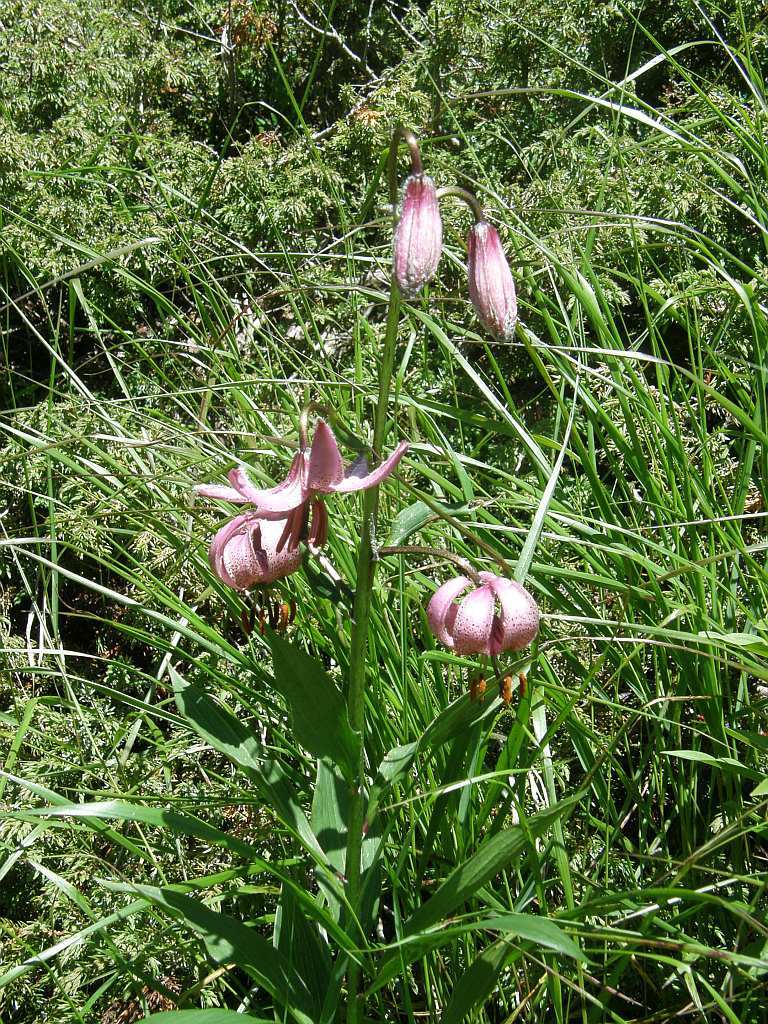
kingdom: Plantae
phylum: Tracheophyta
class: Liliopsida
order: Liliales
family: Liliaceae
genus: Lilium
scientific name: Lilium martagon
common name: Martagon lily
